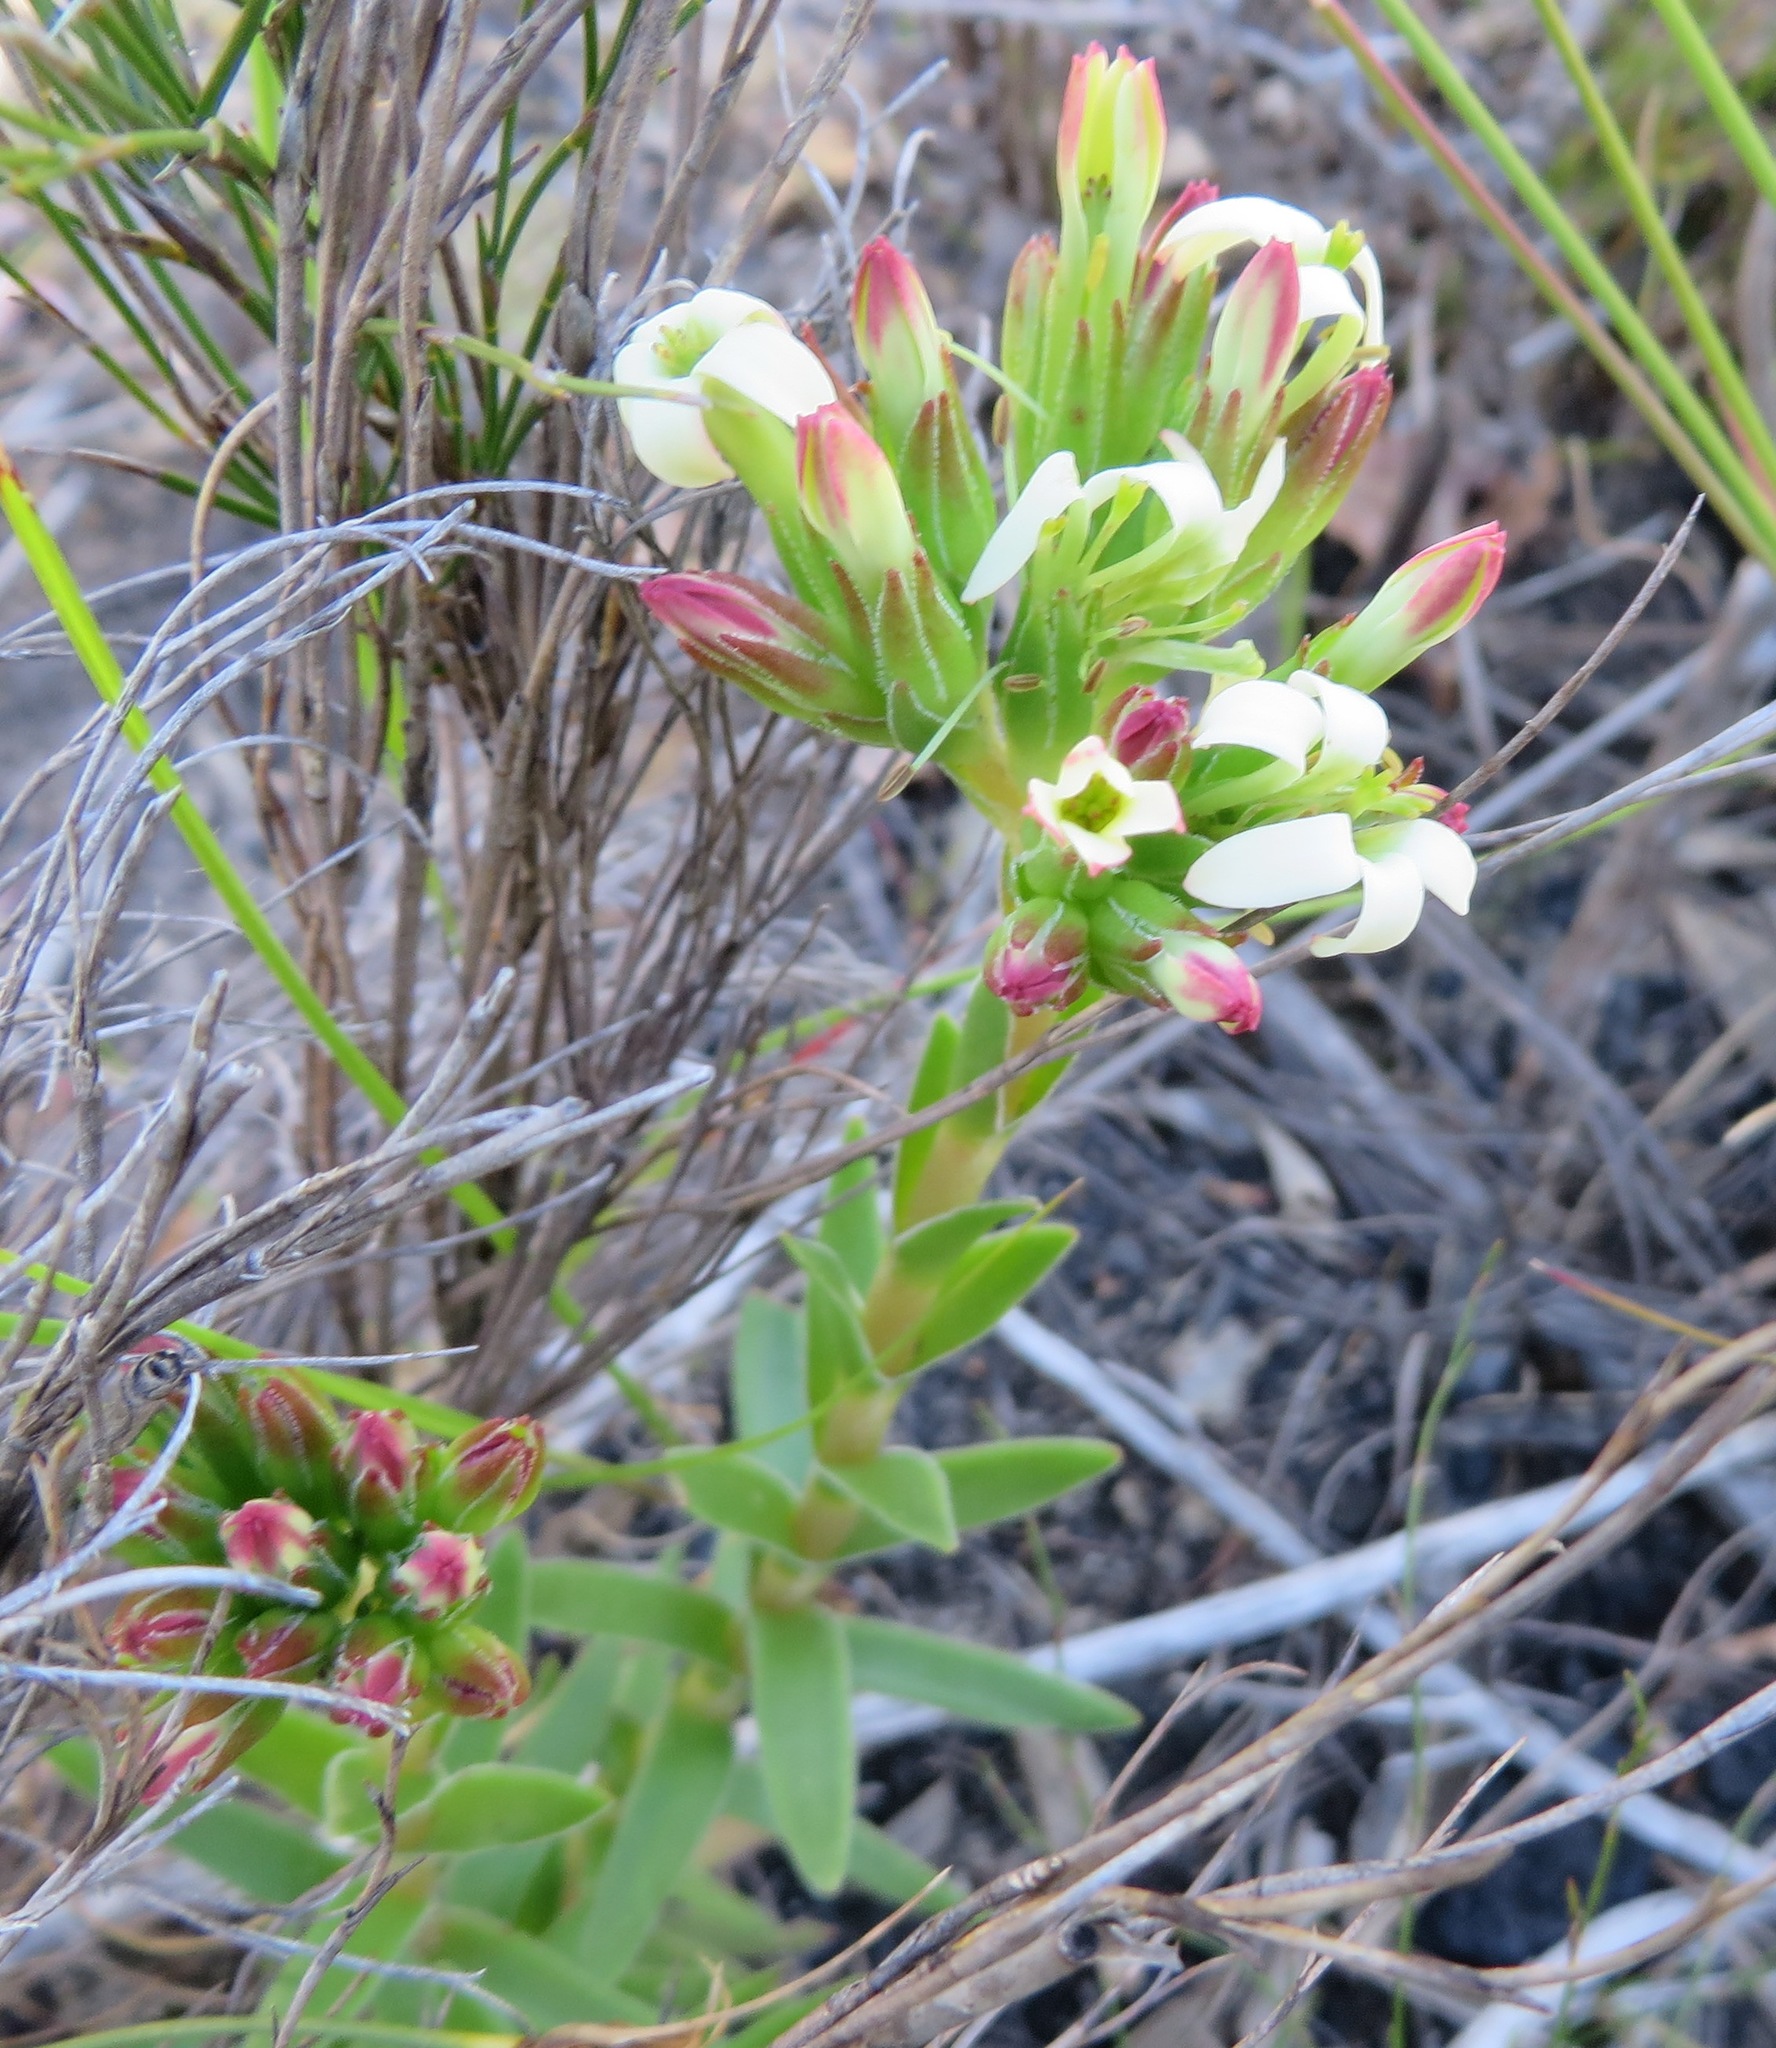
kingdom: Plantae
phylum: Tracheophyta
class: Magnoliopsida
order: Saxifragales
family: Crassulaceae
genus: Crassula
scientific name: Crassula fascicularis
